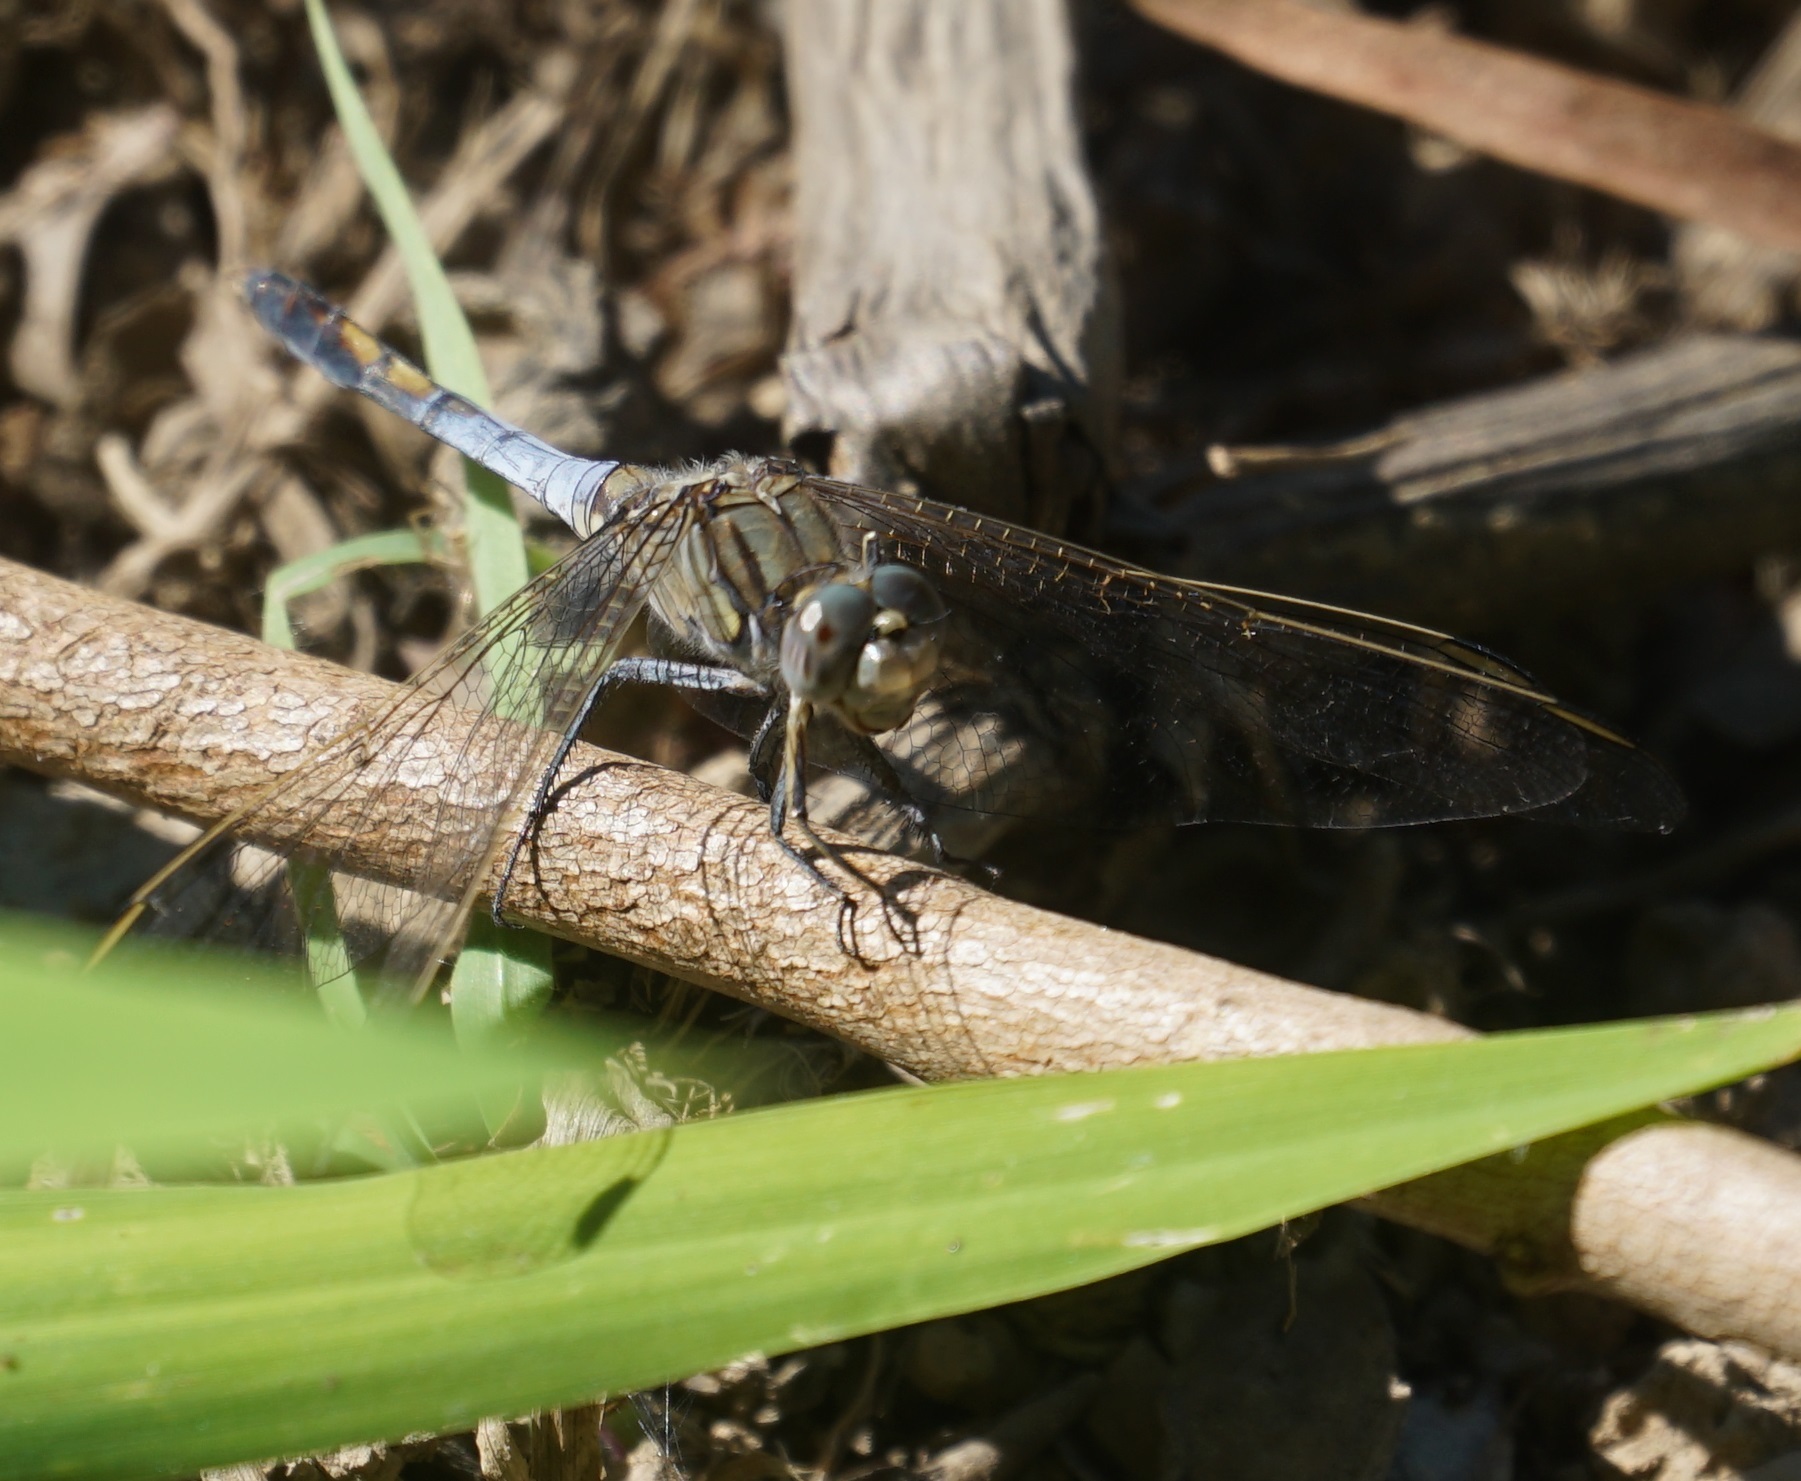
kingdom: Animalia
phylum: Arthropoda
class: Insecta
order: Odonata
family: Libellulidae
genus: Orthetrum
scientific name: Orthetrum caledonicum
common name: Blue skimmer
